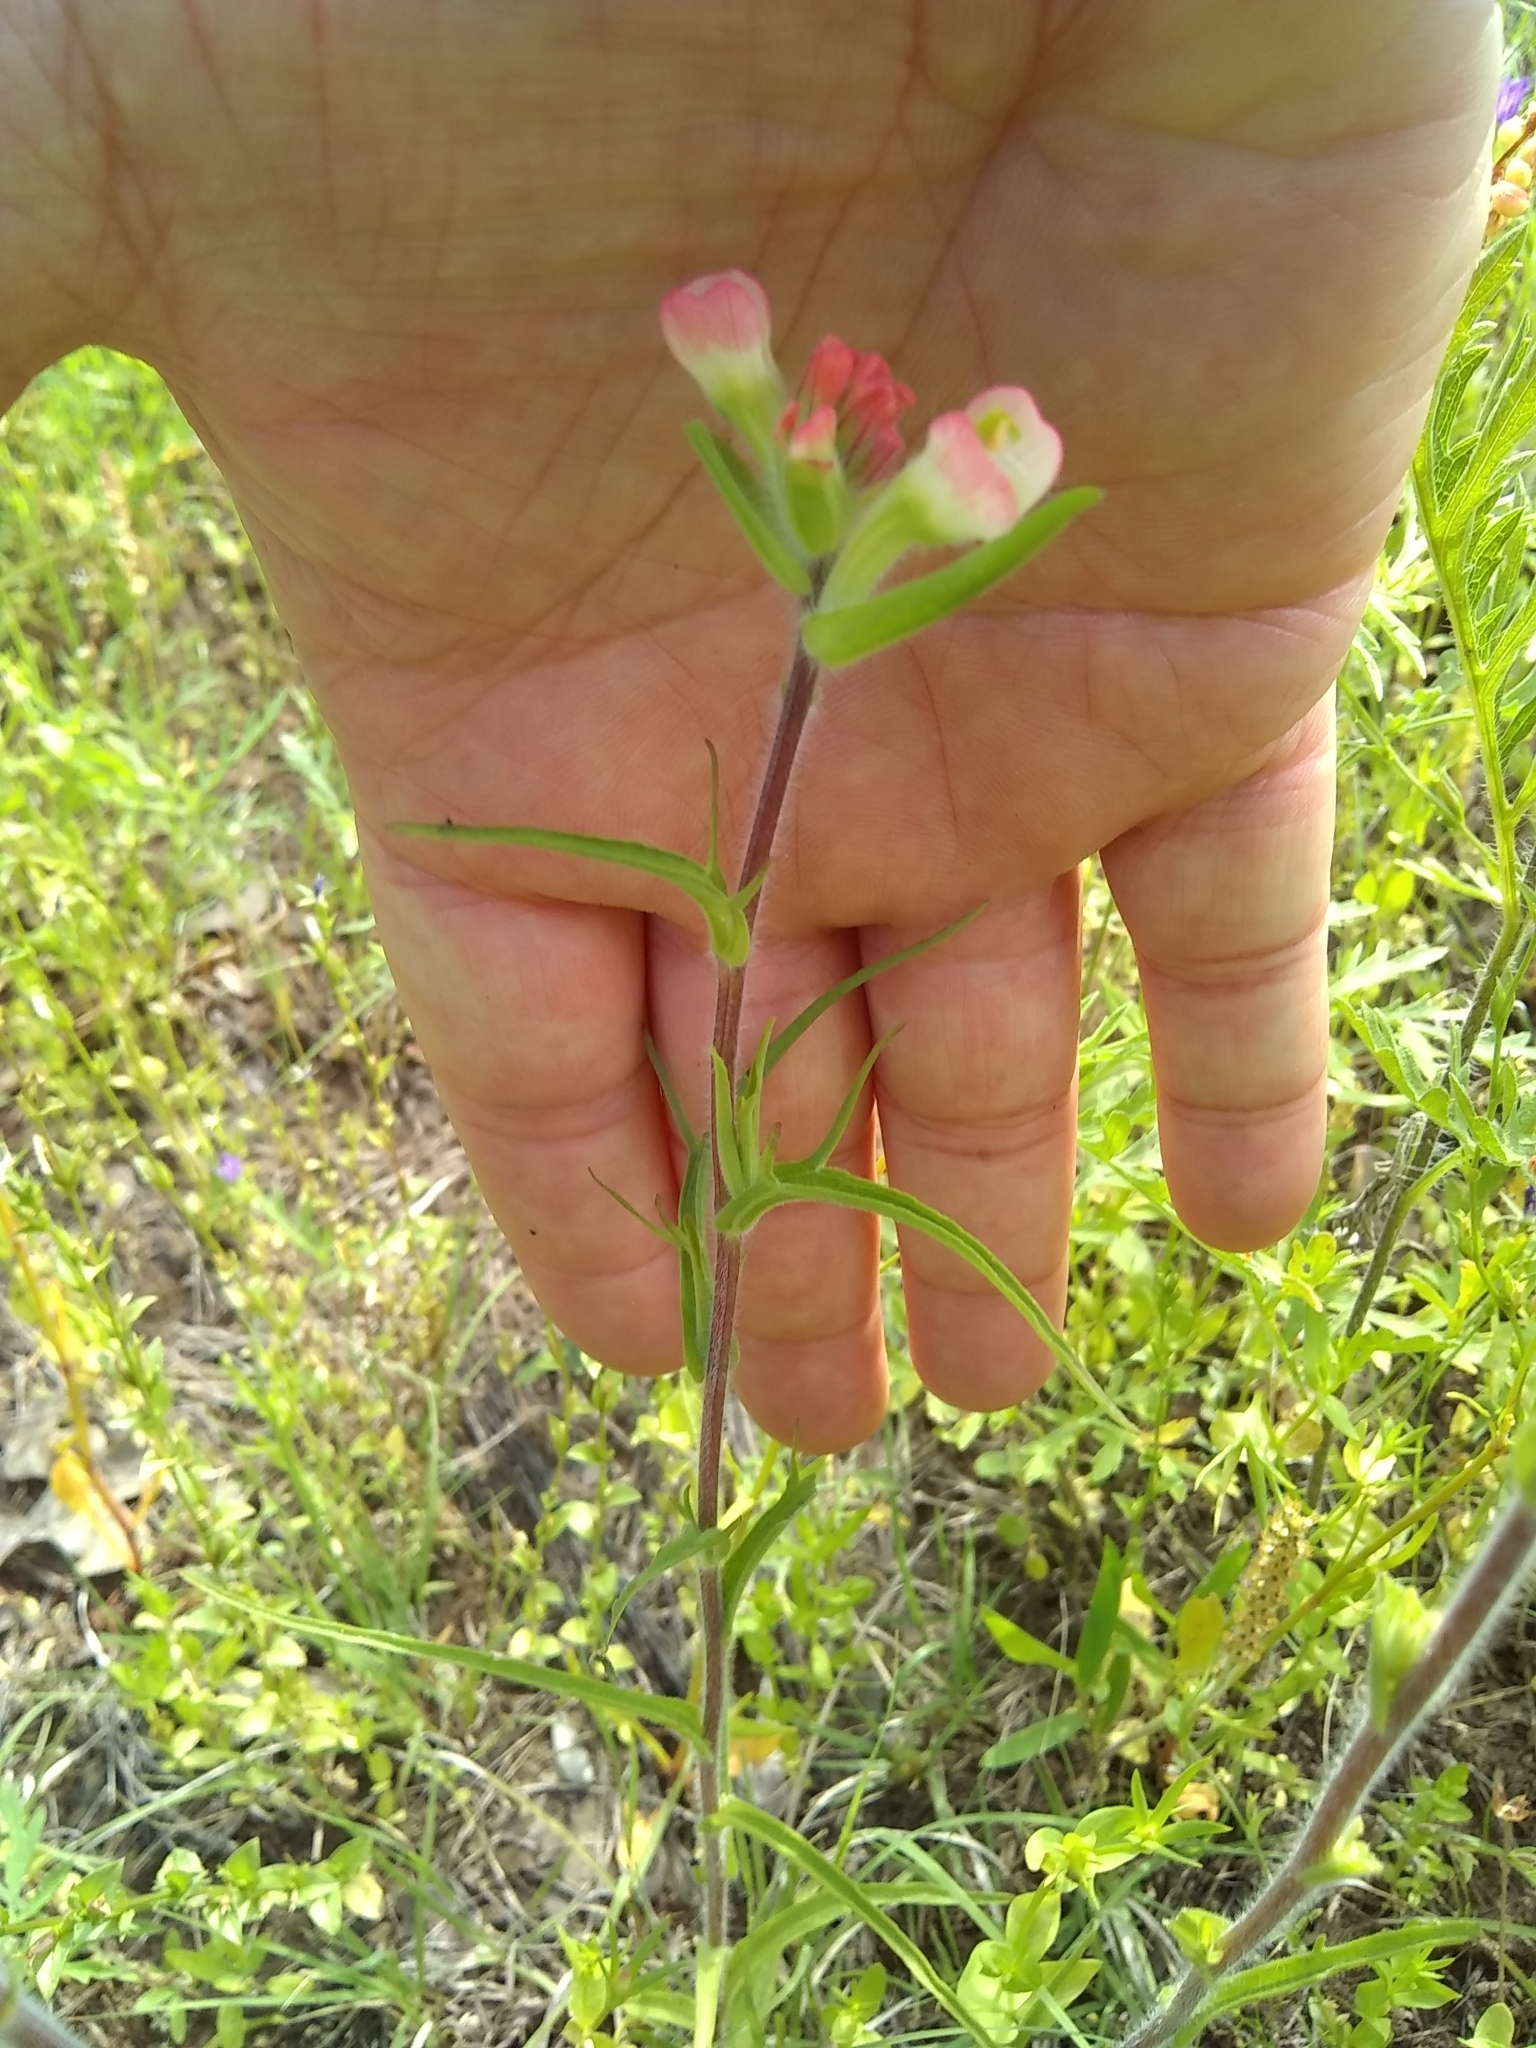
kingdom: Plantae
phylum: Tracheophyta
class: Magnoliopsida
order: Lamiales
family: Orobanchaceae
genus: Castilleja
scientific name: Castilleja indivisa
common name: Texas paintbrush
